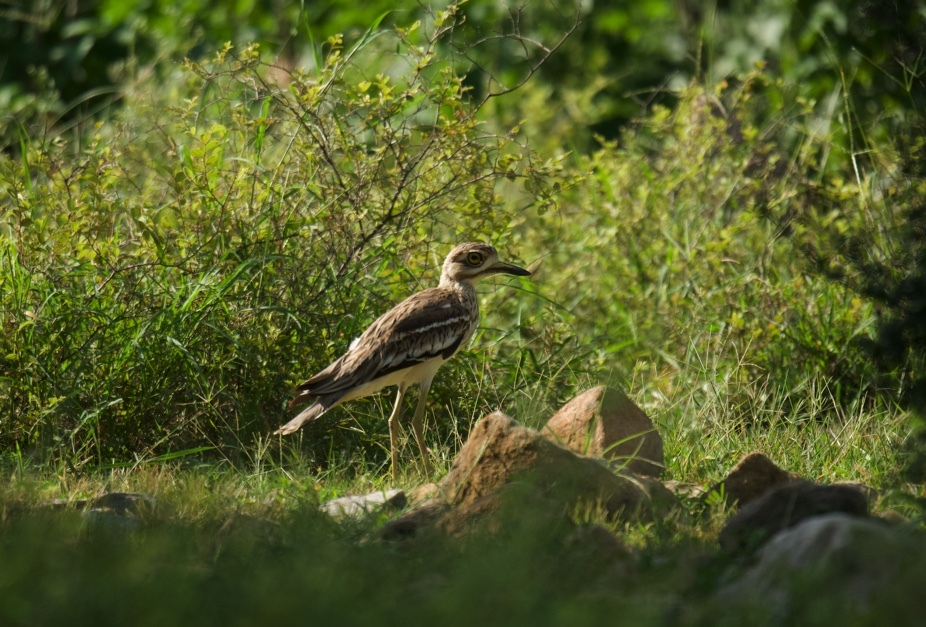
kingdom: Animalia
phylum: Chordata
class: Aves
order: Charadriiformes
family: Burhinidae
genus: Burhinus
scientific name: Burhinus indicus
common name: Indian thick-knee
